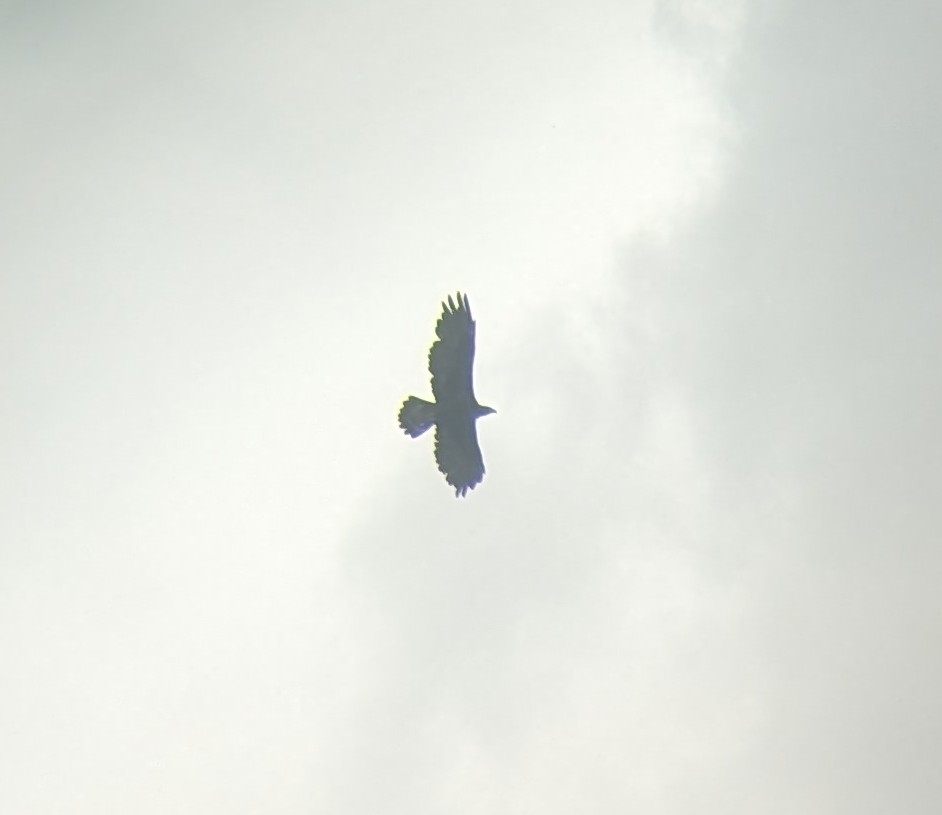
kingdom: Animalia
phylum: Chordata
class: Aves
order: Accipitriformes
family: Accipitridae
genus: Aquila
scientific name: Aquila chrysaetos
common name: Golden eagle
